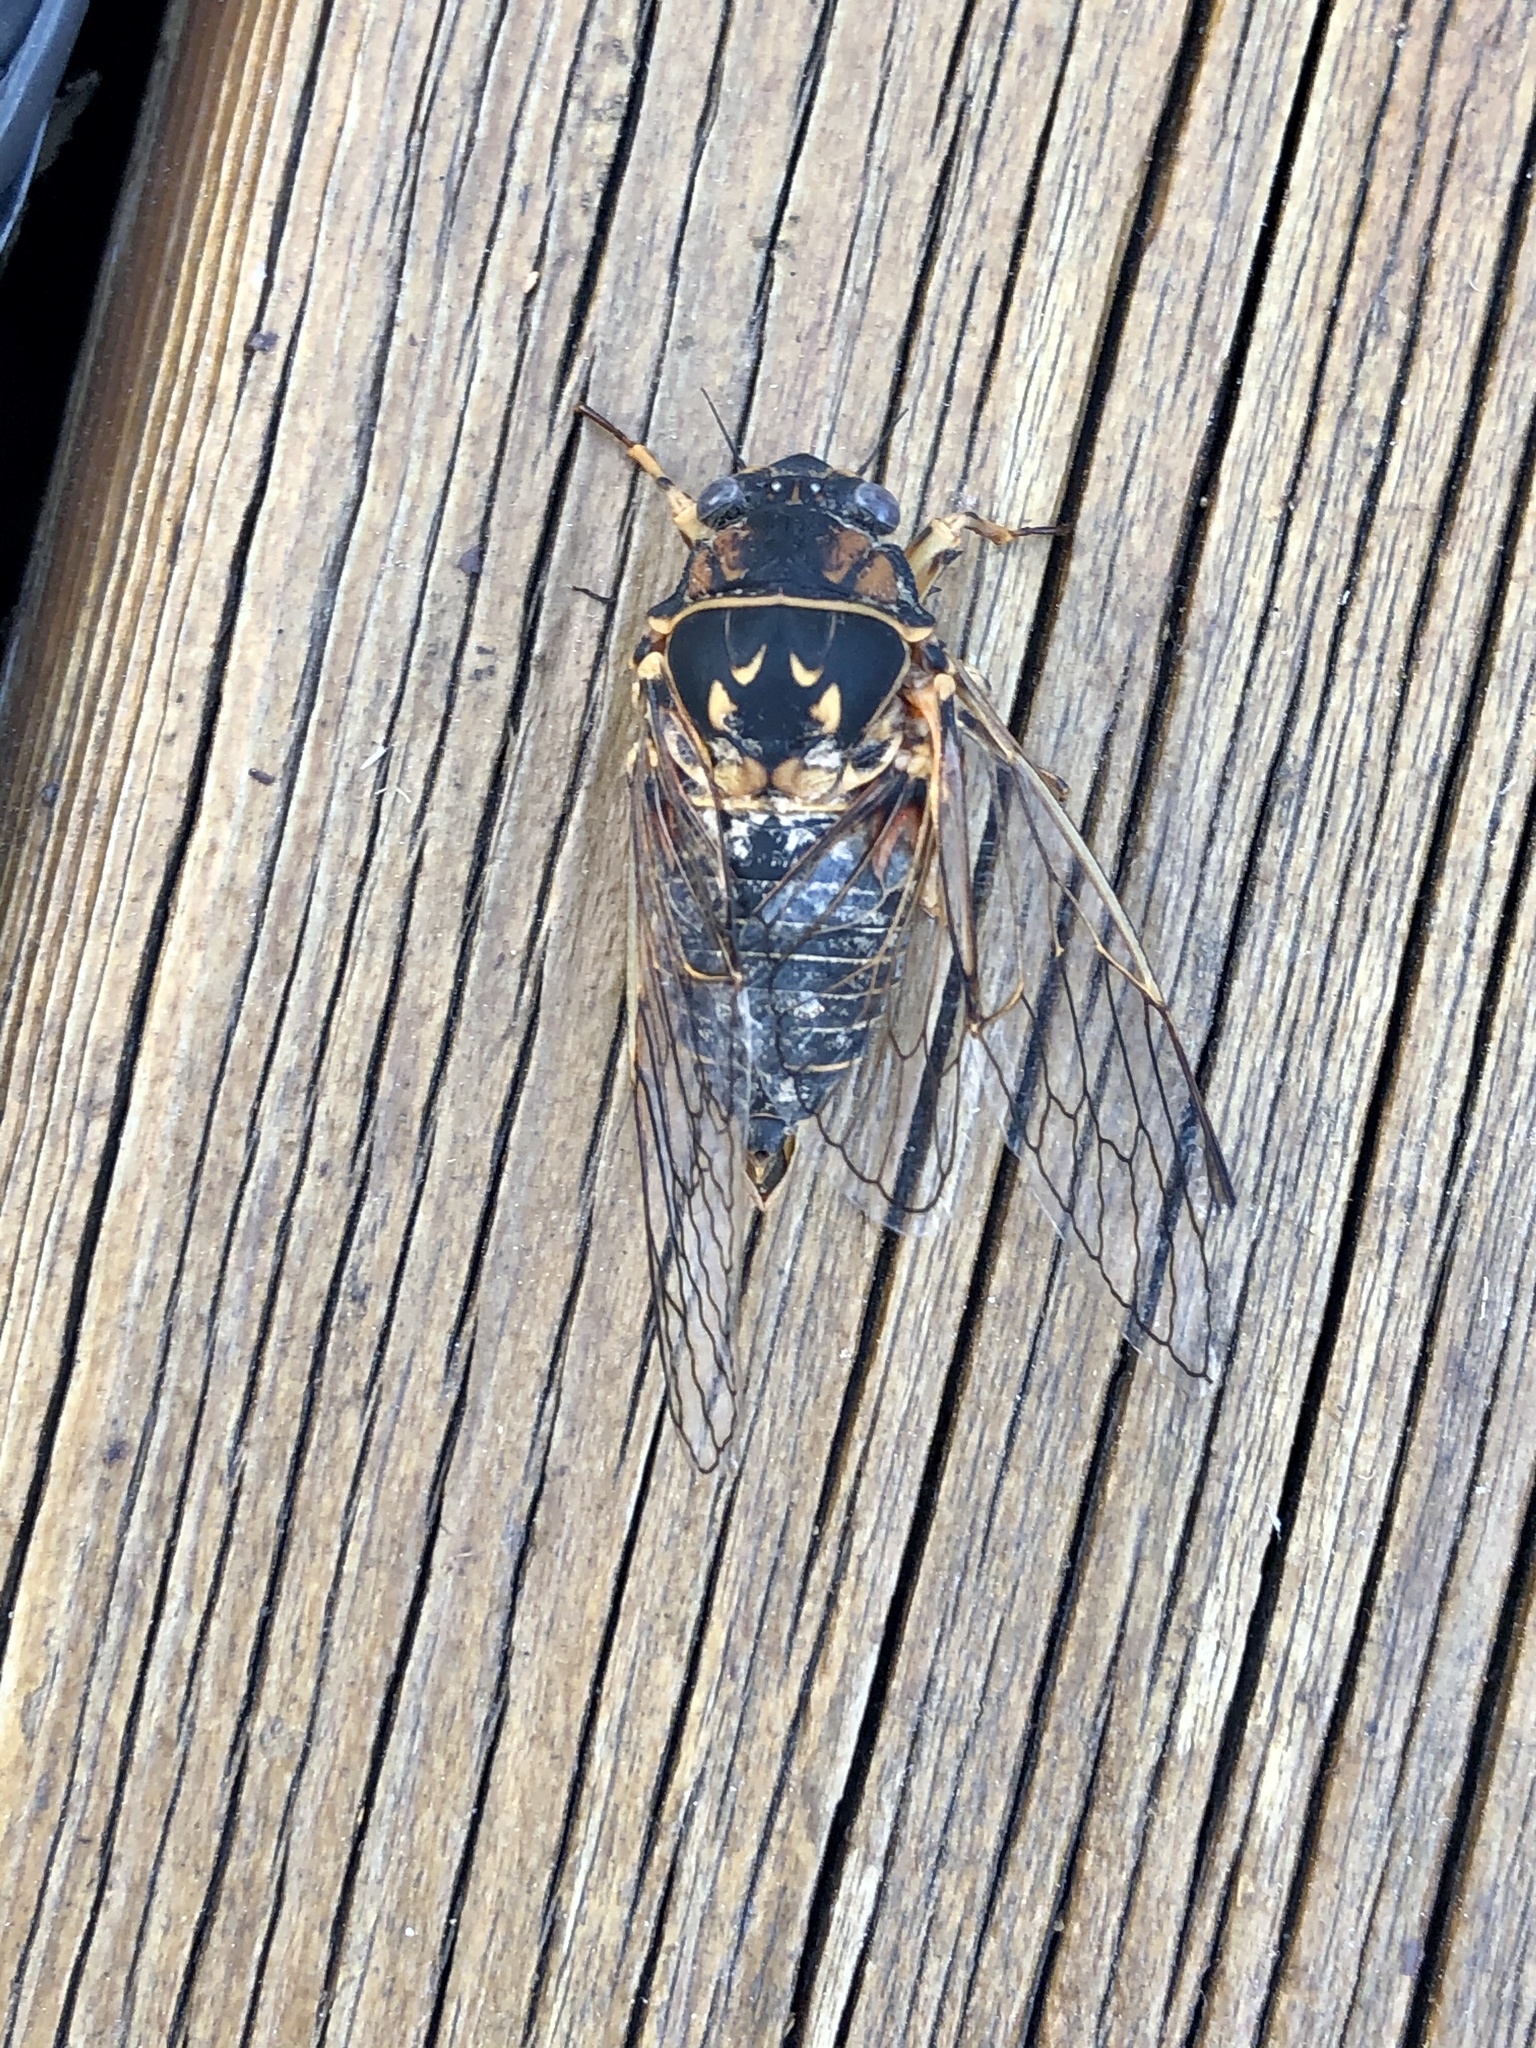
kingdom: Animalia
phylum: Arthropoda
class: Insecta
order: Hemiptera
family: Cicadidae
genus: Okanagana
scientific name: Okanagana noveboracensis
